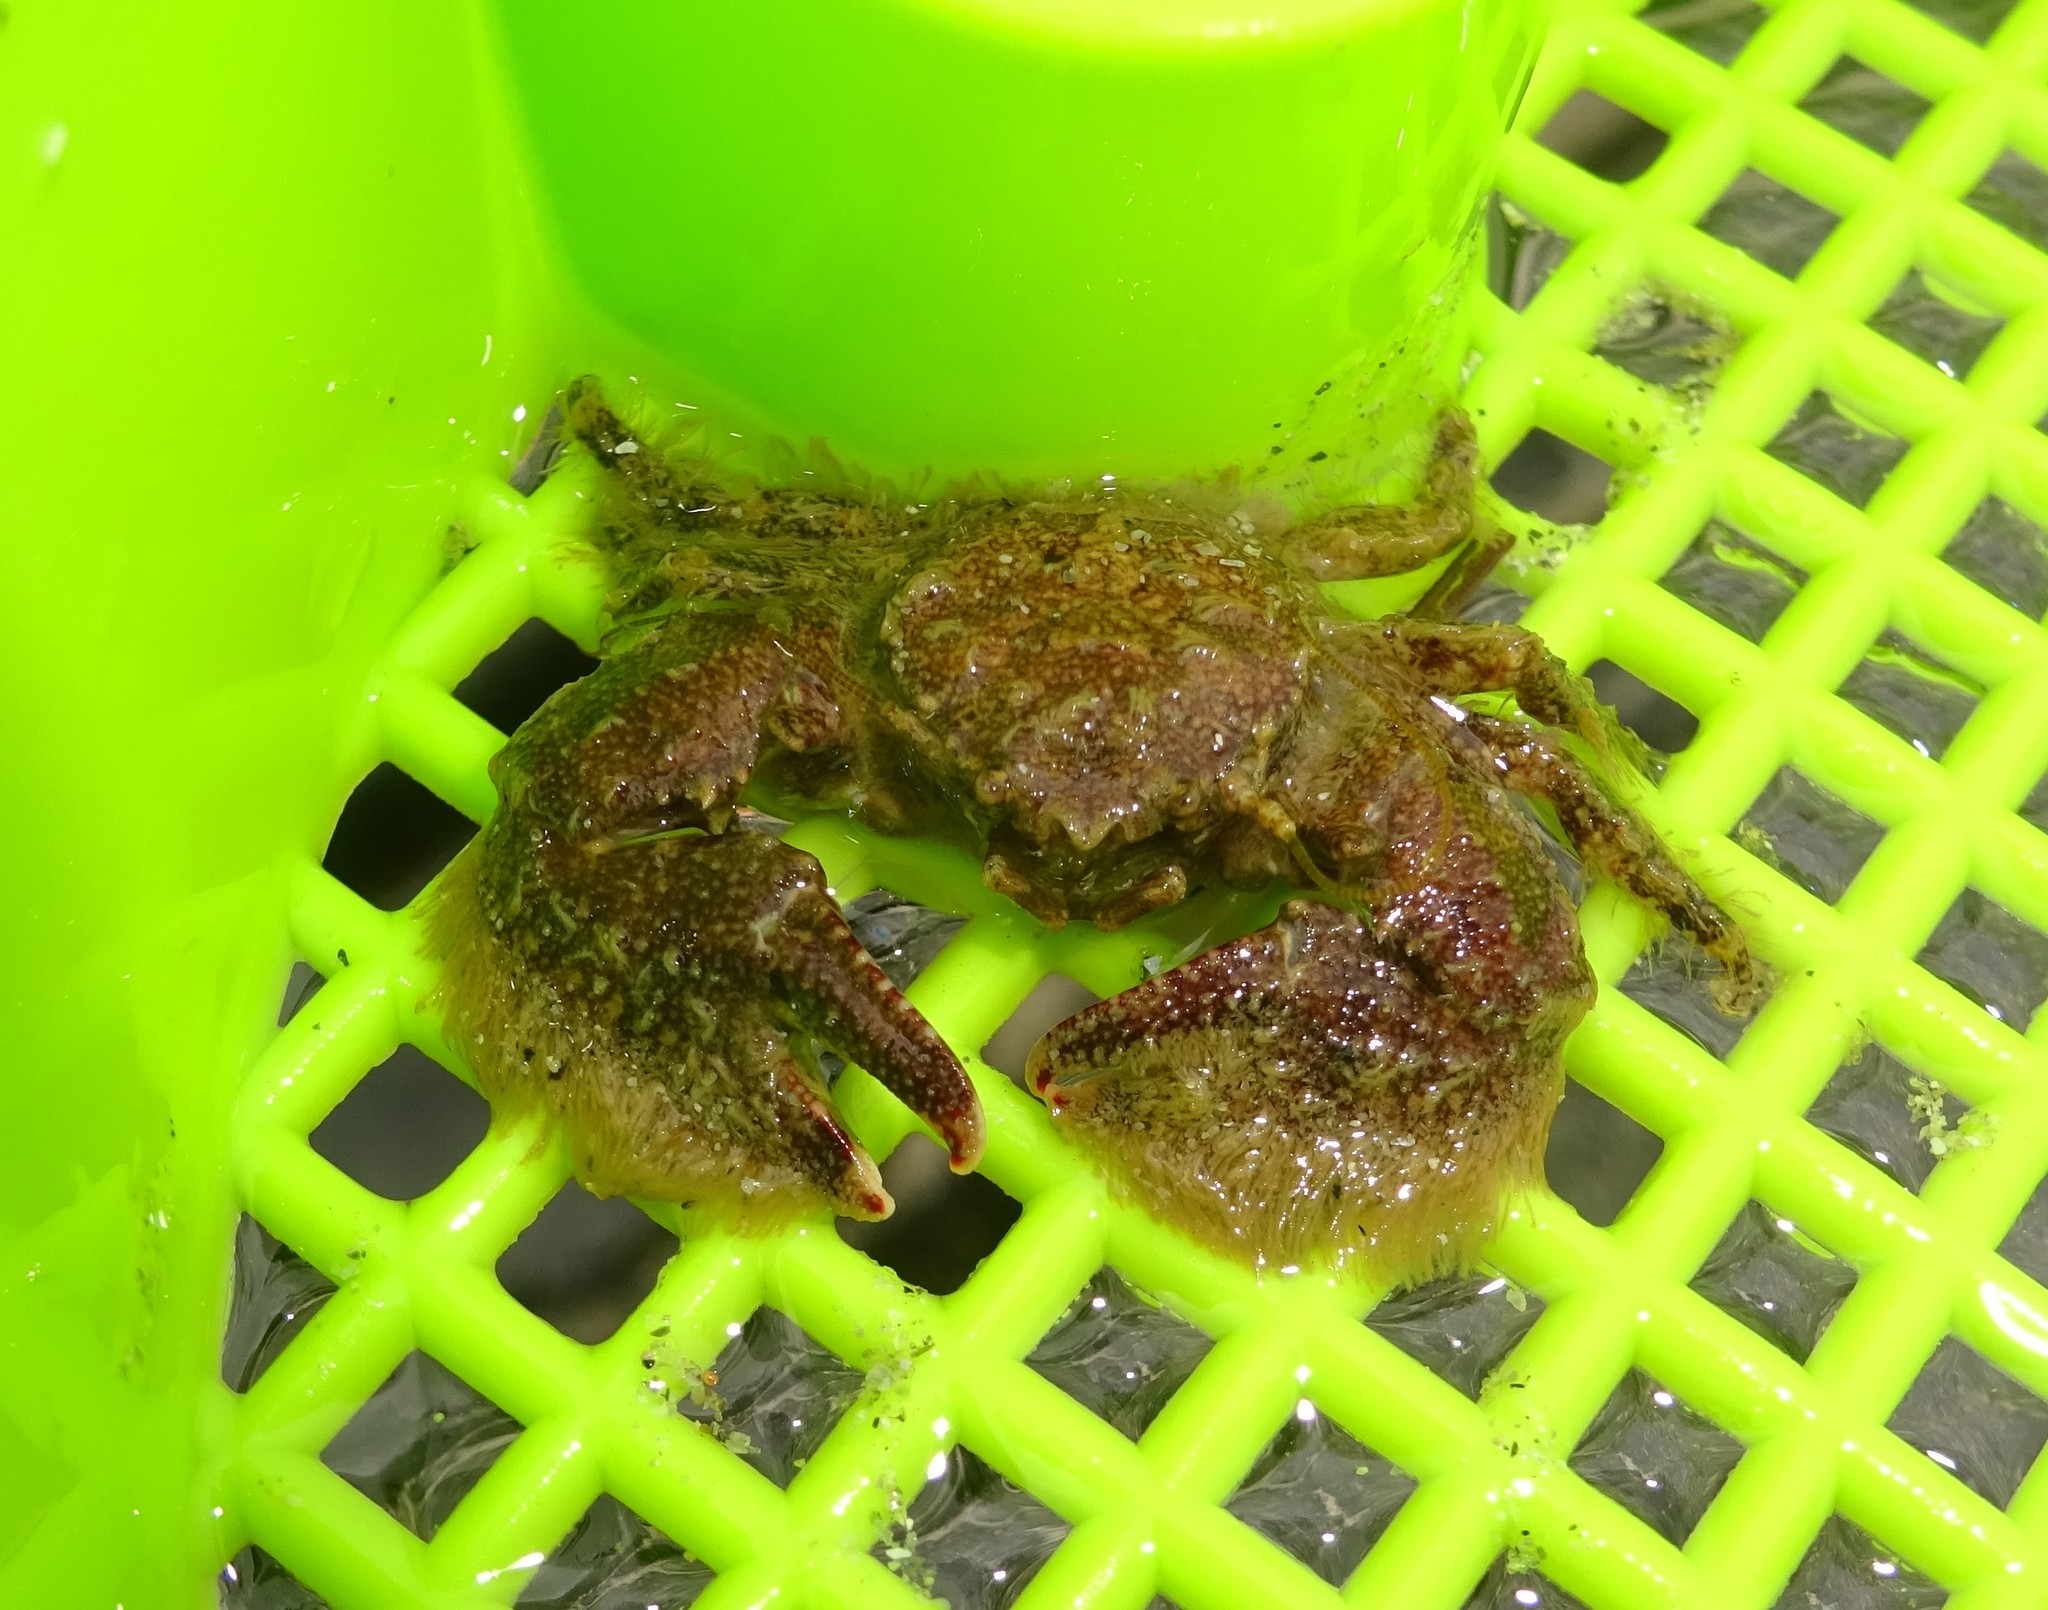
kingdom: Animalia
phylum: Arthropoda
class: Malacostraca
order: Decapoda
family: Porcellanidae
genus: Porcellana
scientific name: Porcellana platycheles
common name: Porcelain crab
